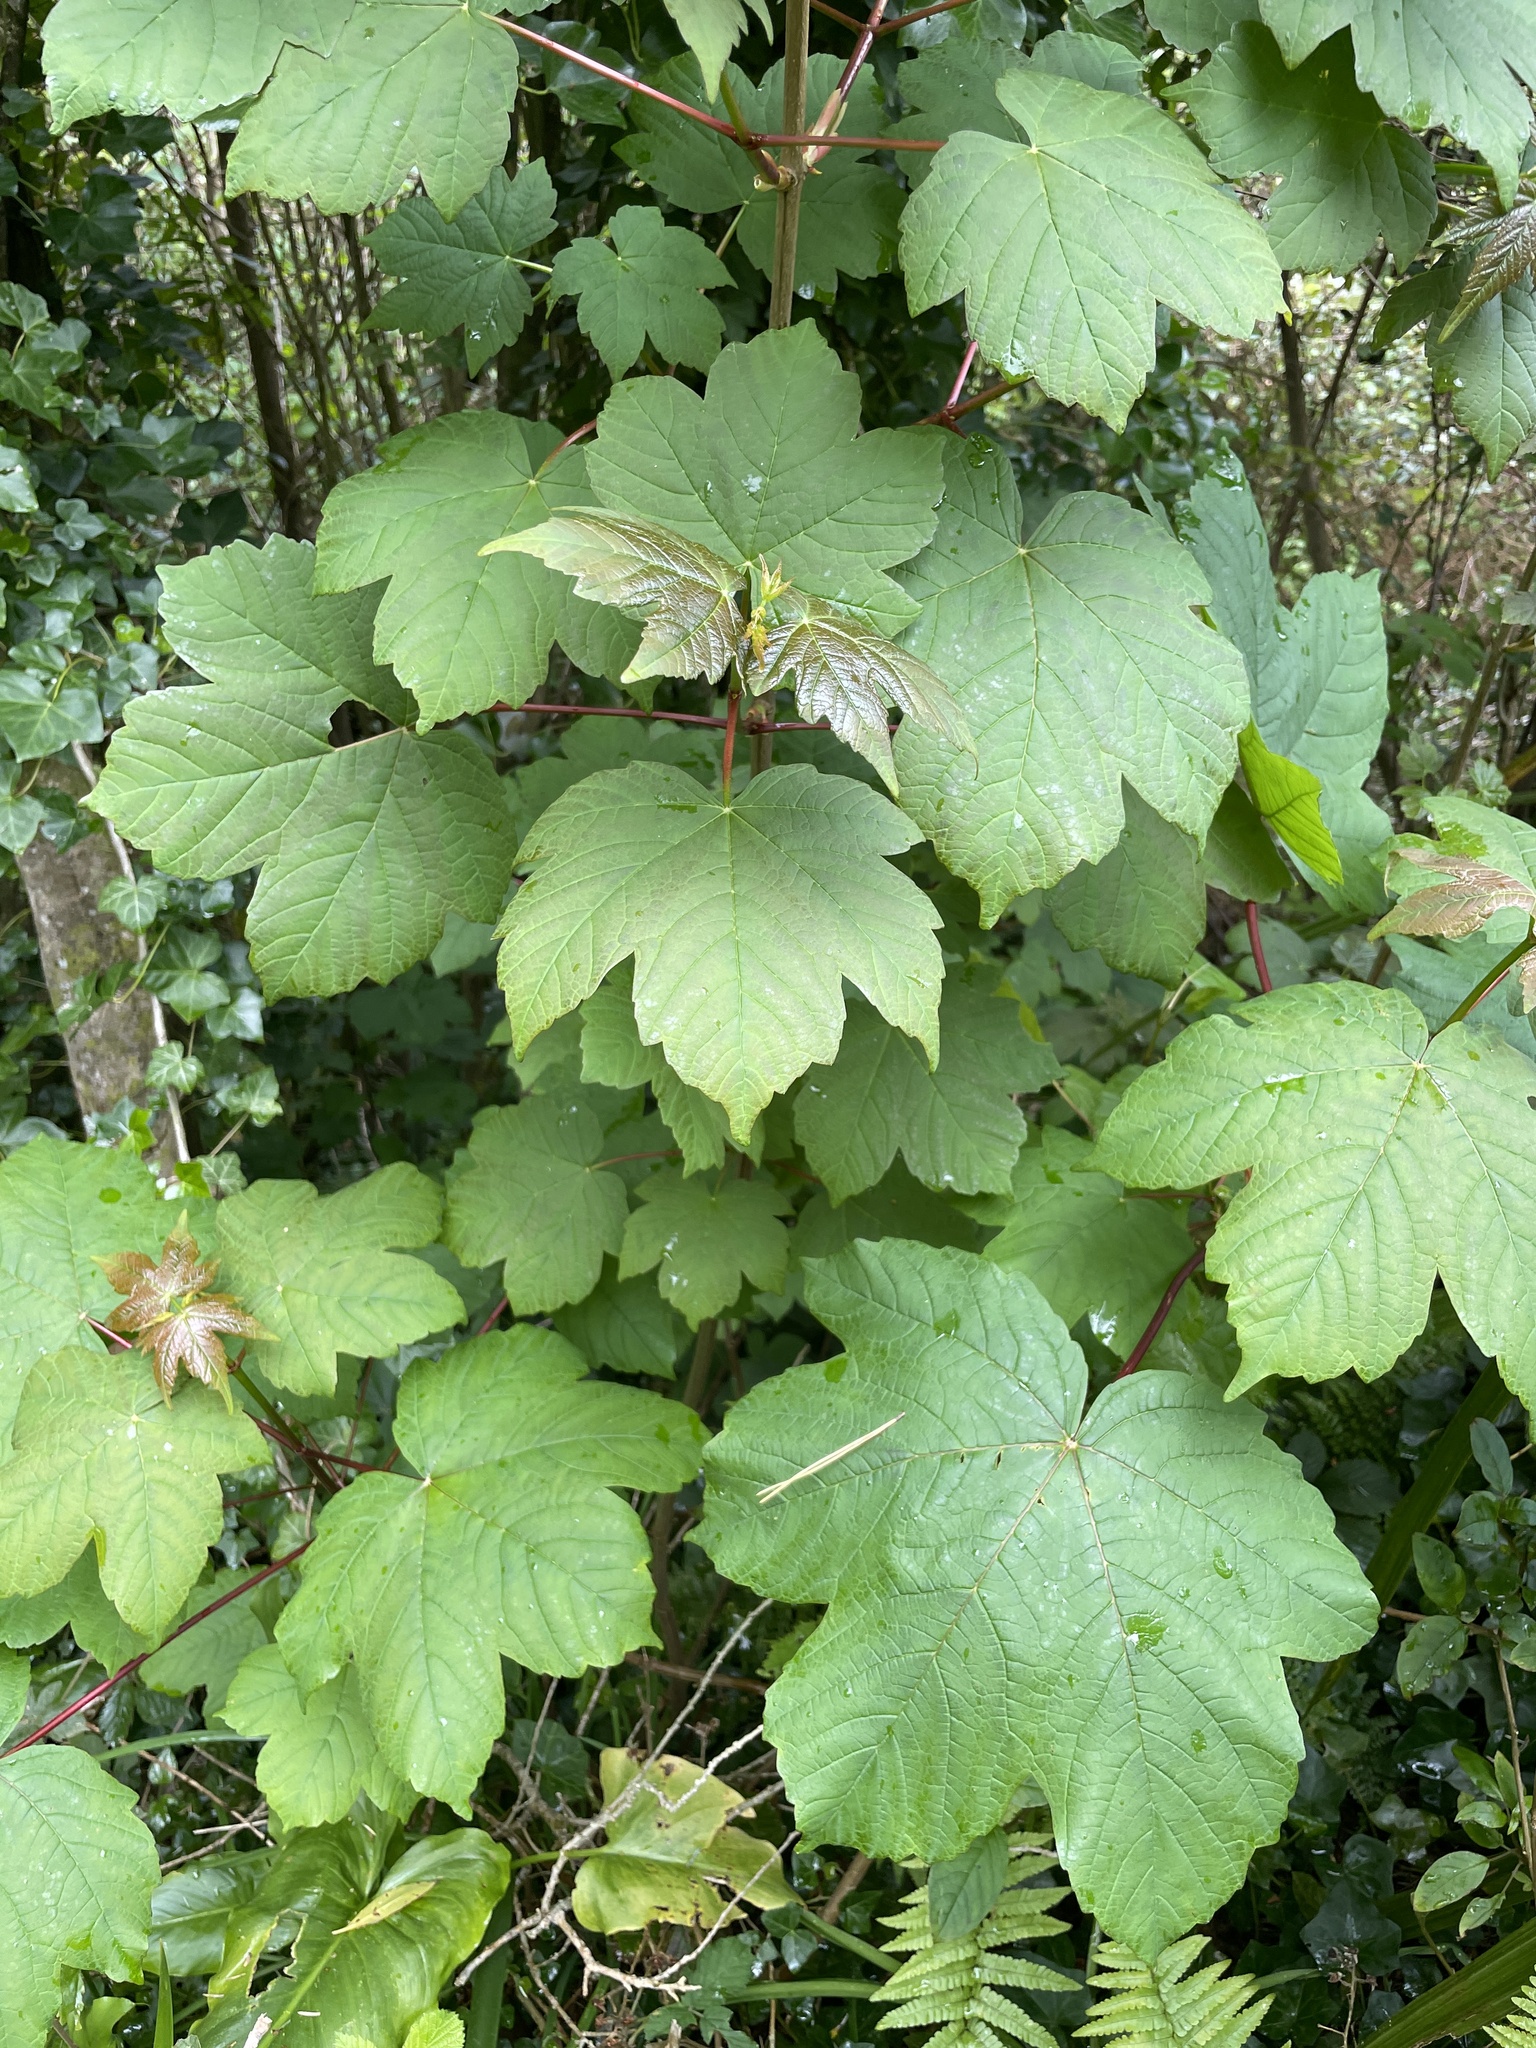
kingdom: Plantae
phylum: Tracheophyta
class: Magnoliopsida
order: Sapindales
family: Sapindaceae
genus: Acer
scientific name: Acer pseudoplatanus
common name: Sycamore
